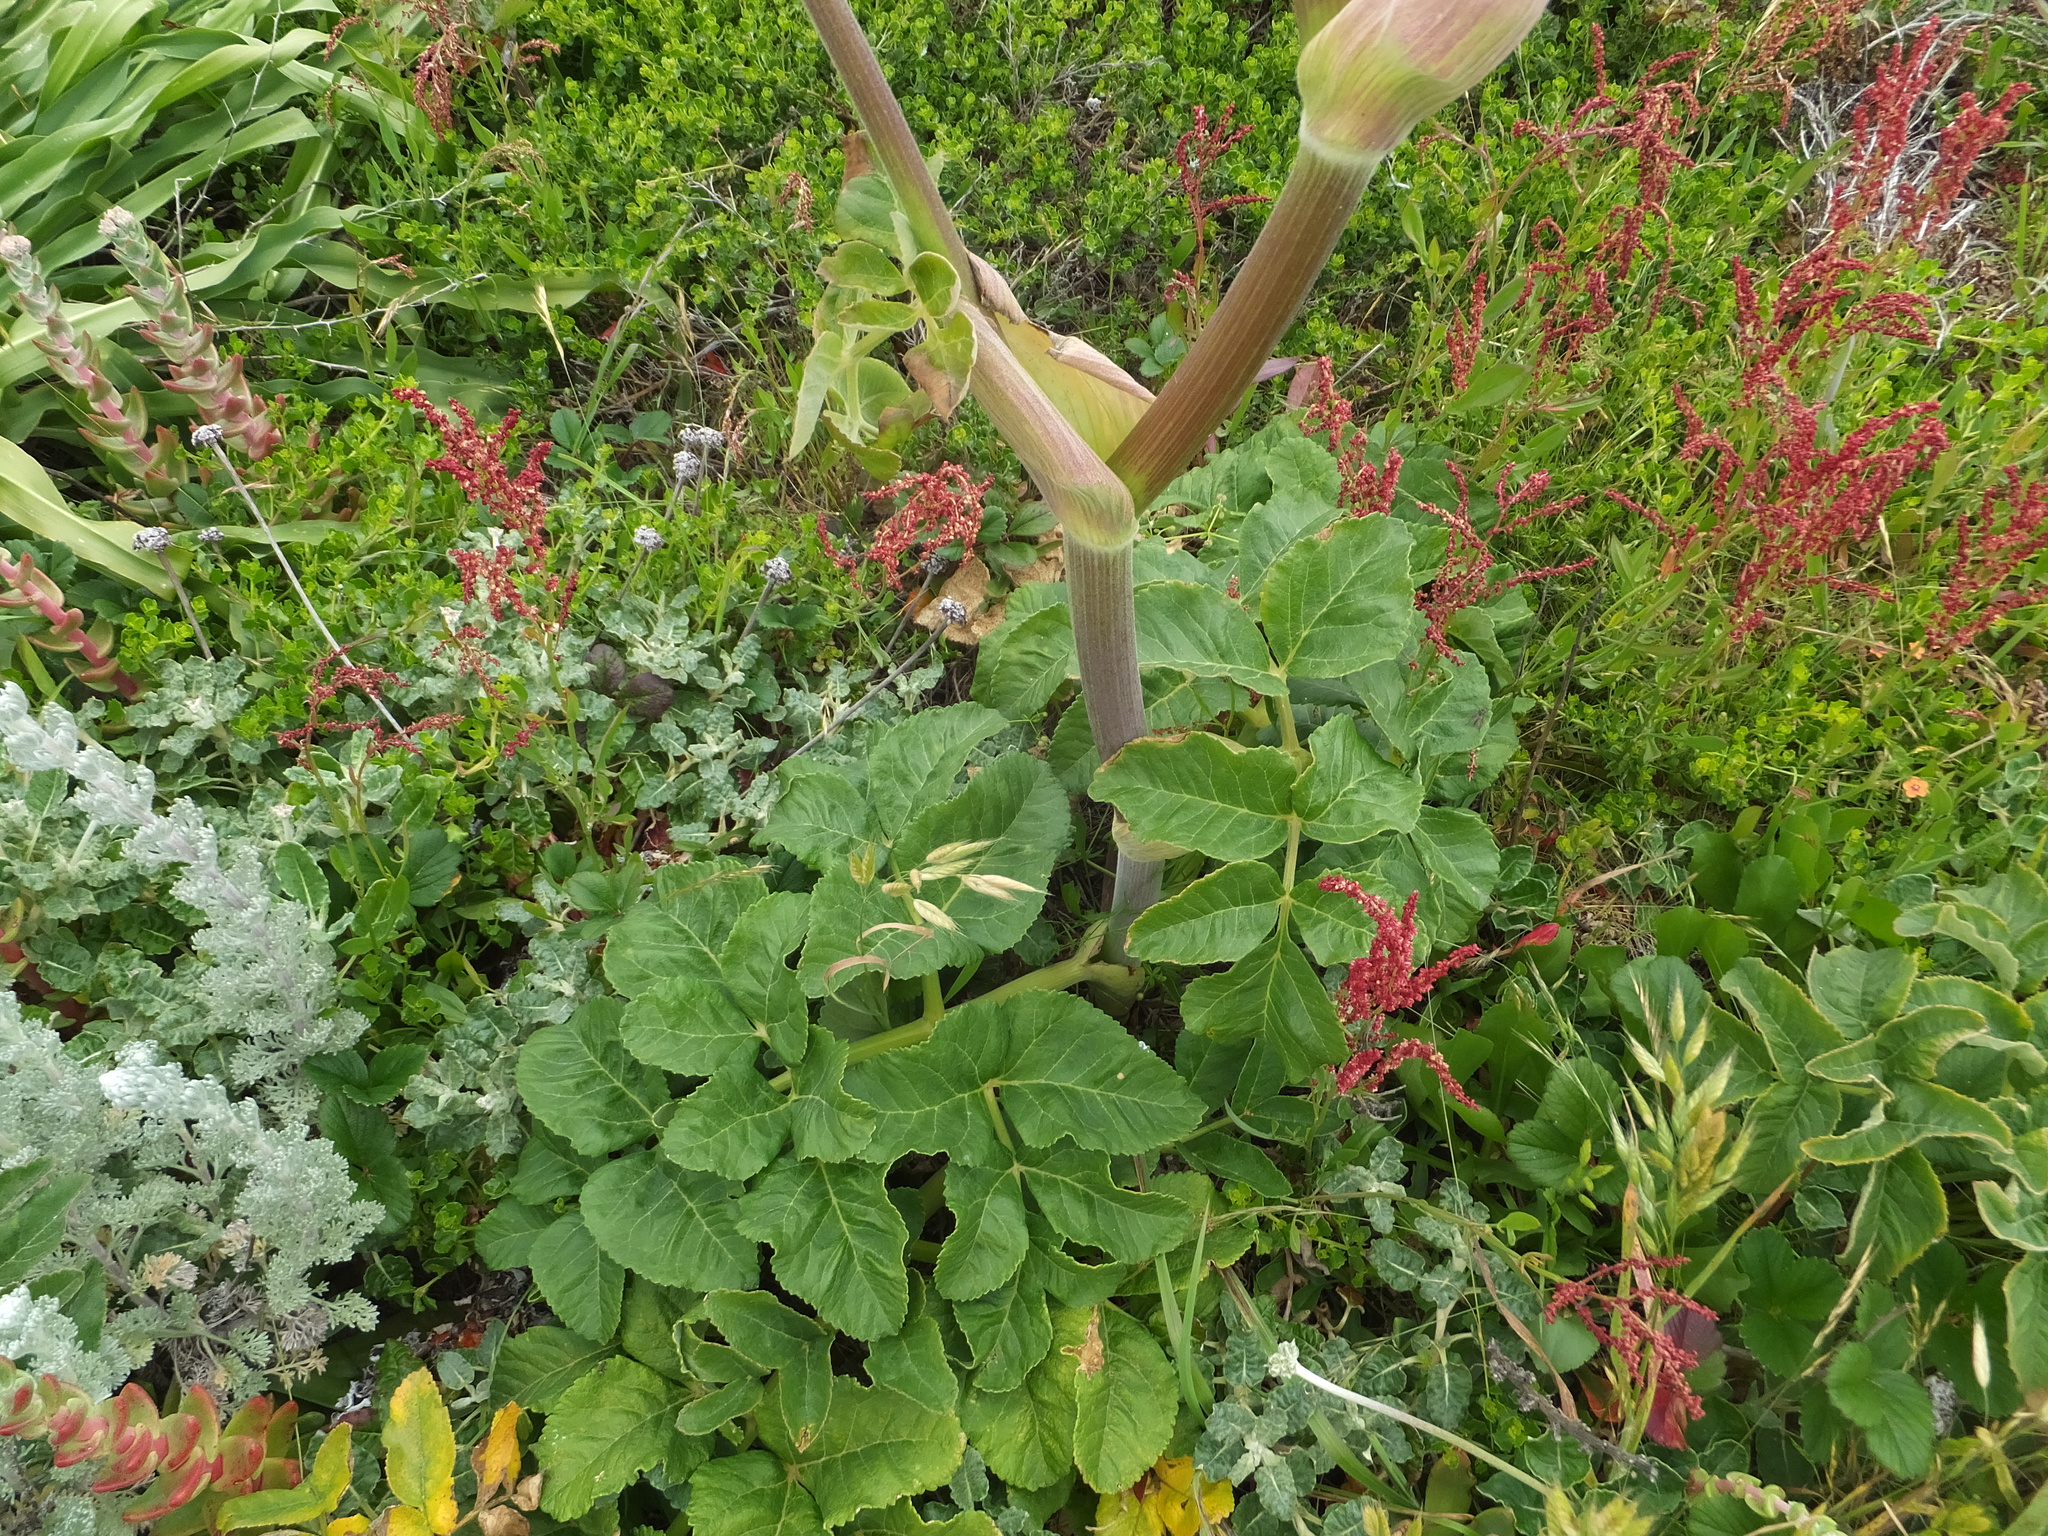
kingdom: Plantae
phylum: Tracheophyta
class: Magnoliopsida
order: Apiales
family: Apiaceae
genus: Angelica
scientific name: Angelica hendersonii
